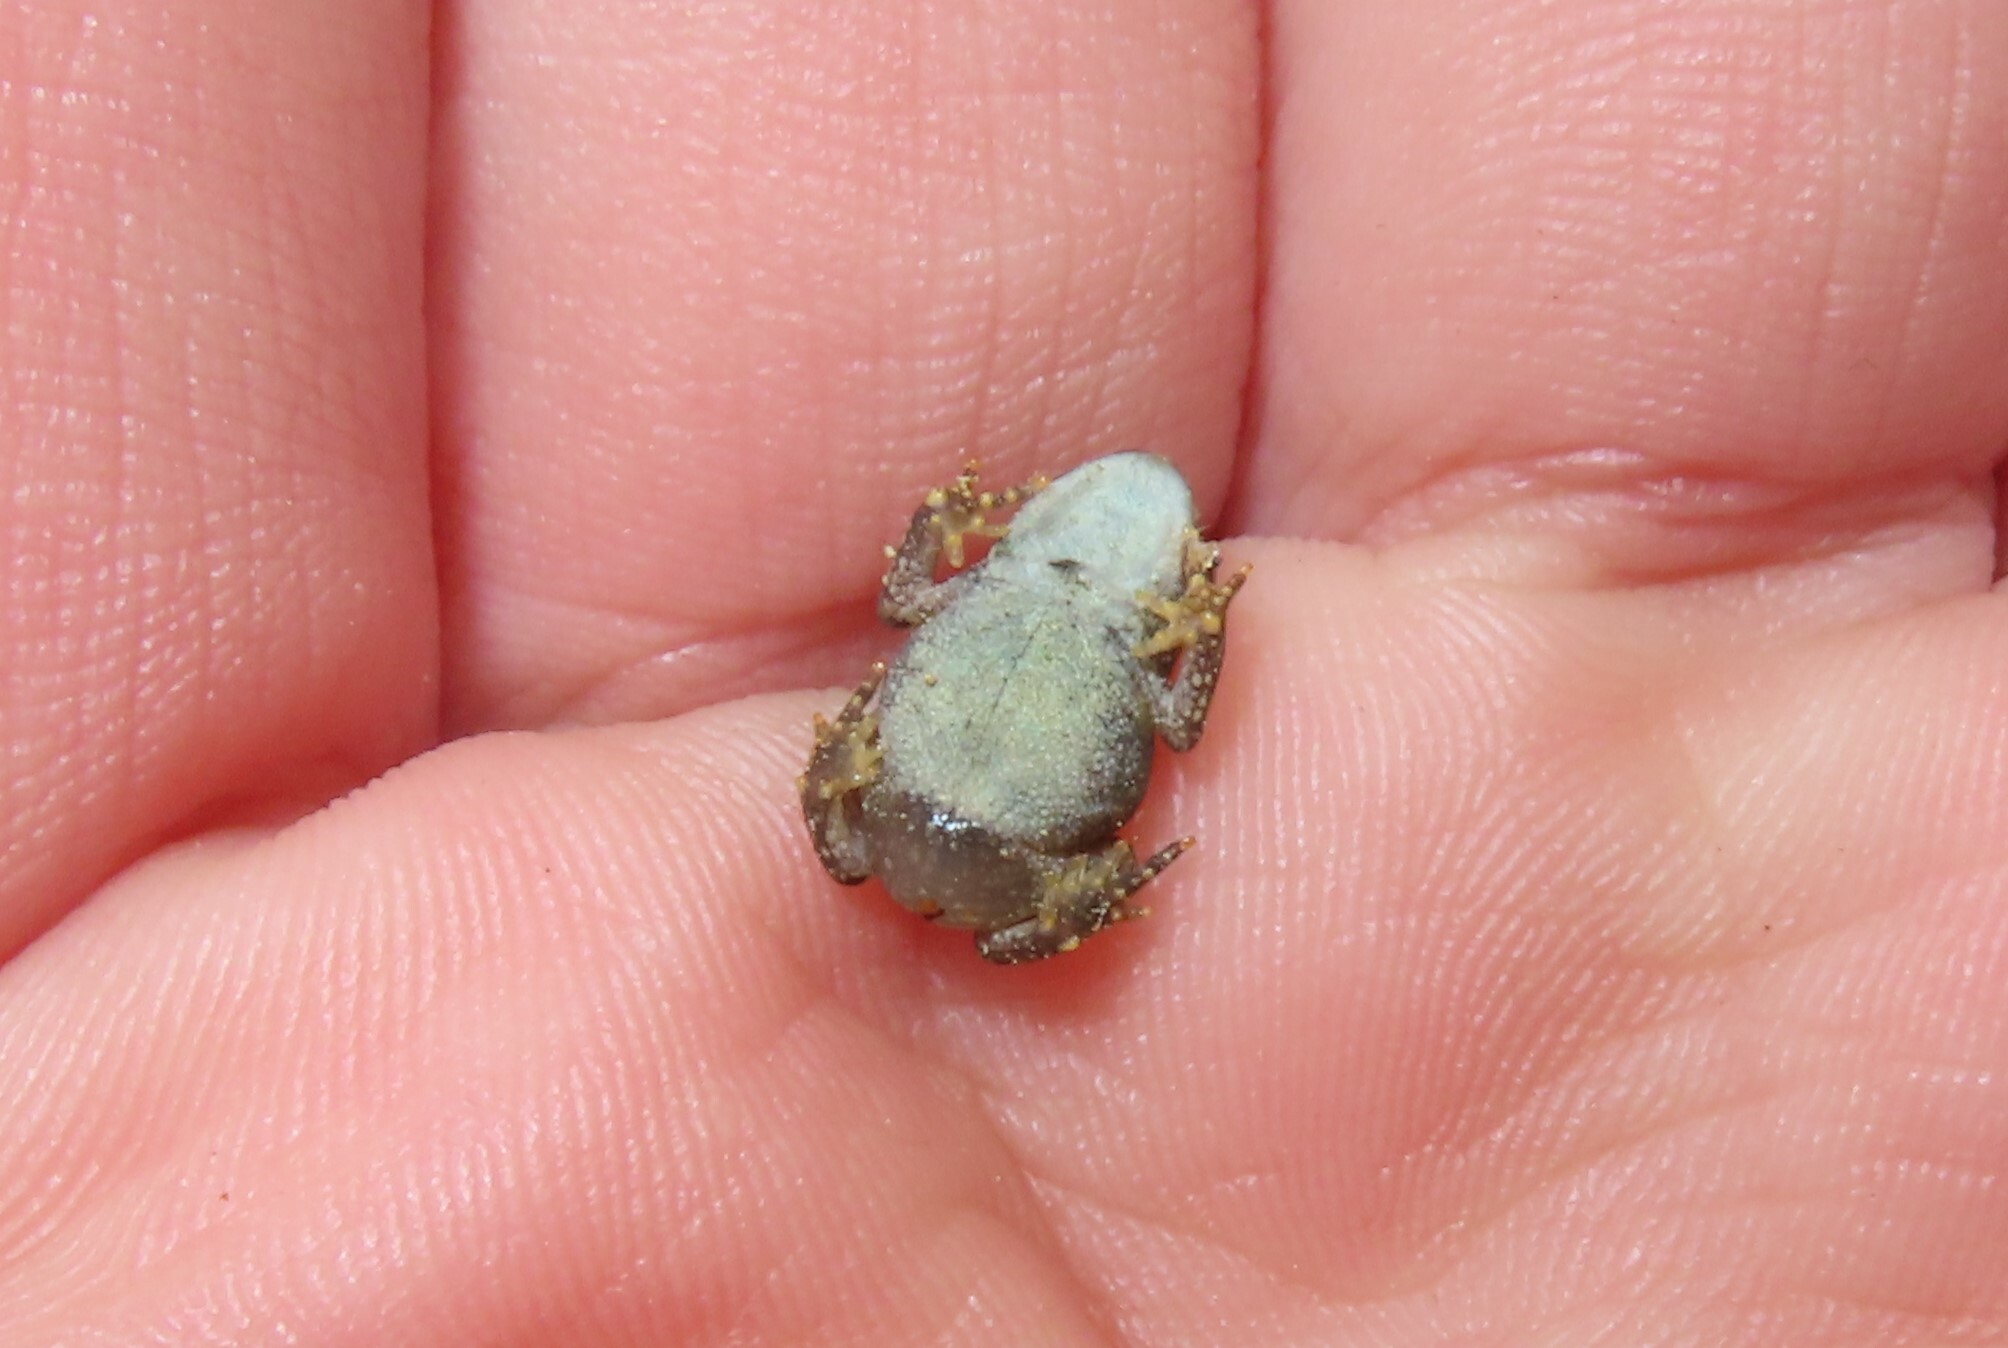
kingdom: Animalia
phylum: Chordata
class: Amphibia
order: Anura
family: Bufonidae
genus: Anaxyrus
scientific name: Anaxyrus americanus
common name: American toad
